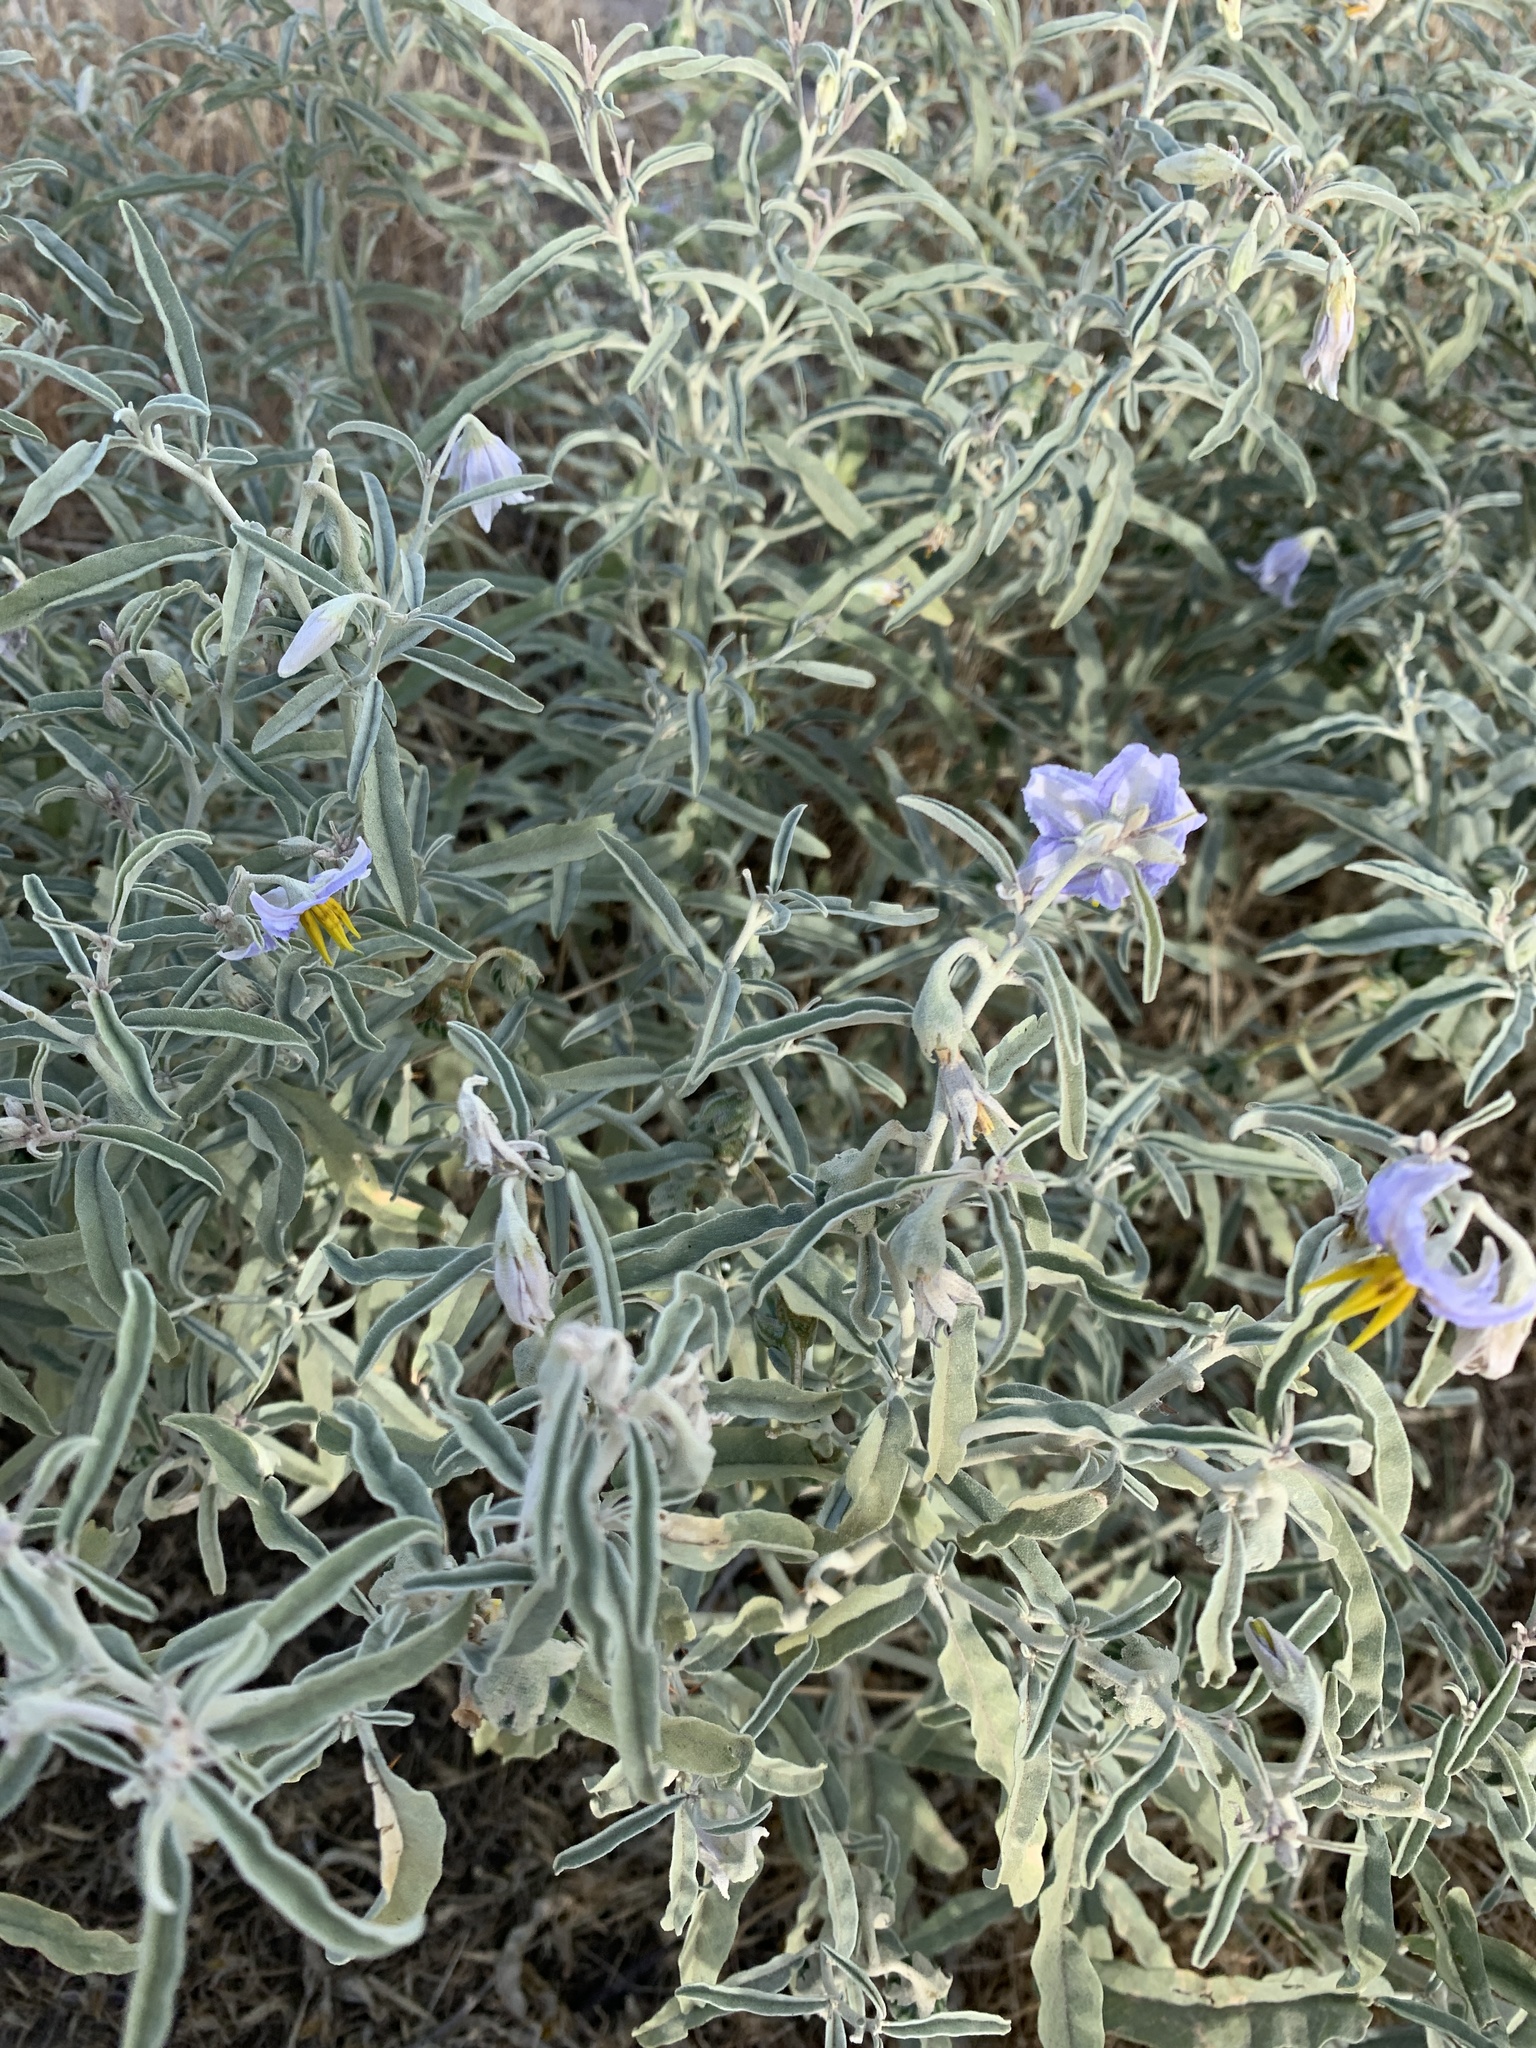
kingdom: Plantae
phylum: Tracheophyta
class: Magnoliopsida
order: Solanales
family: Solanaceae
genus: Solanum
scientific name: Solanum elaeagnifolium
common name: Silverleaf nightshade
